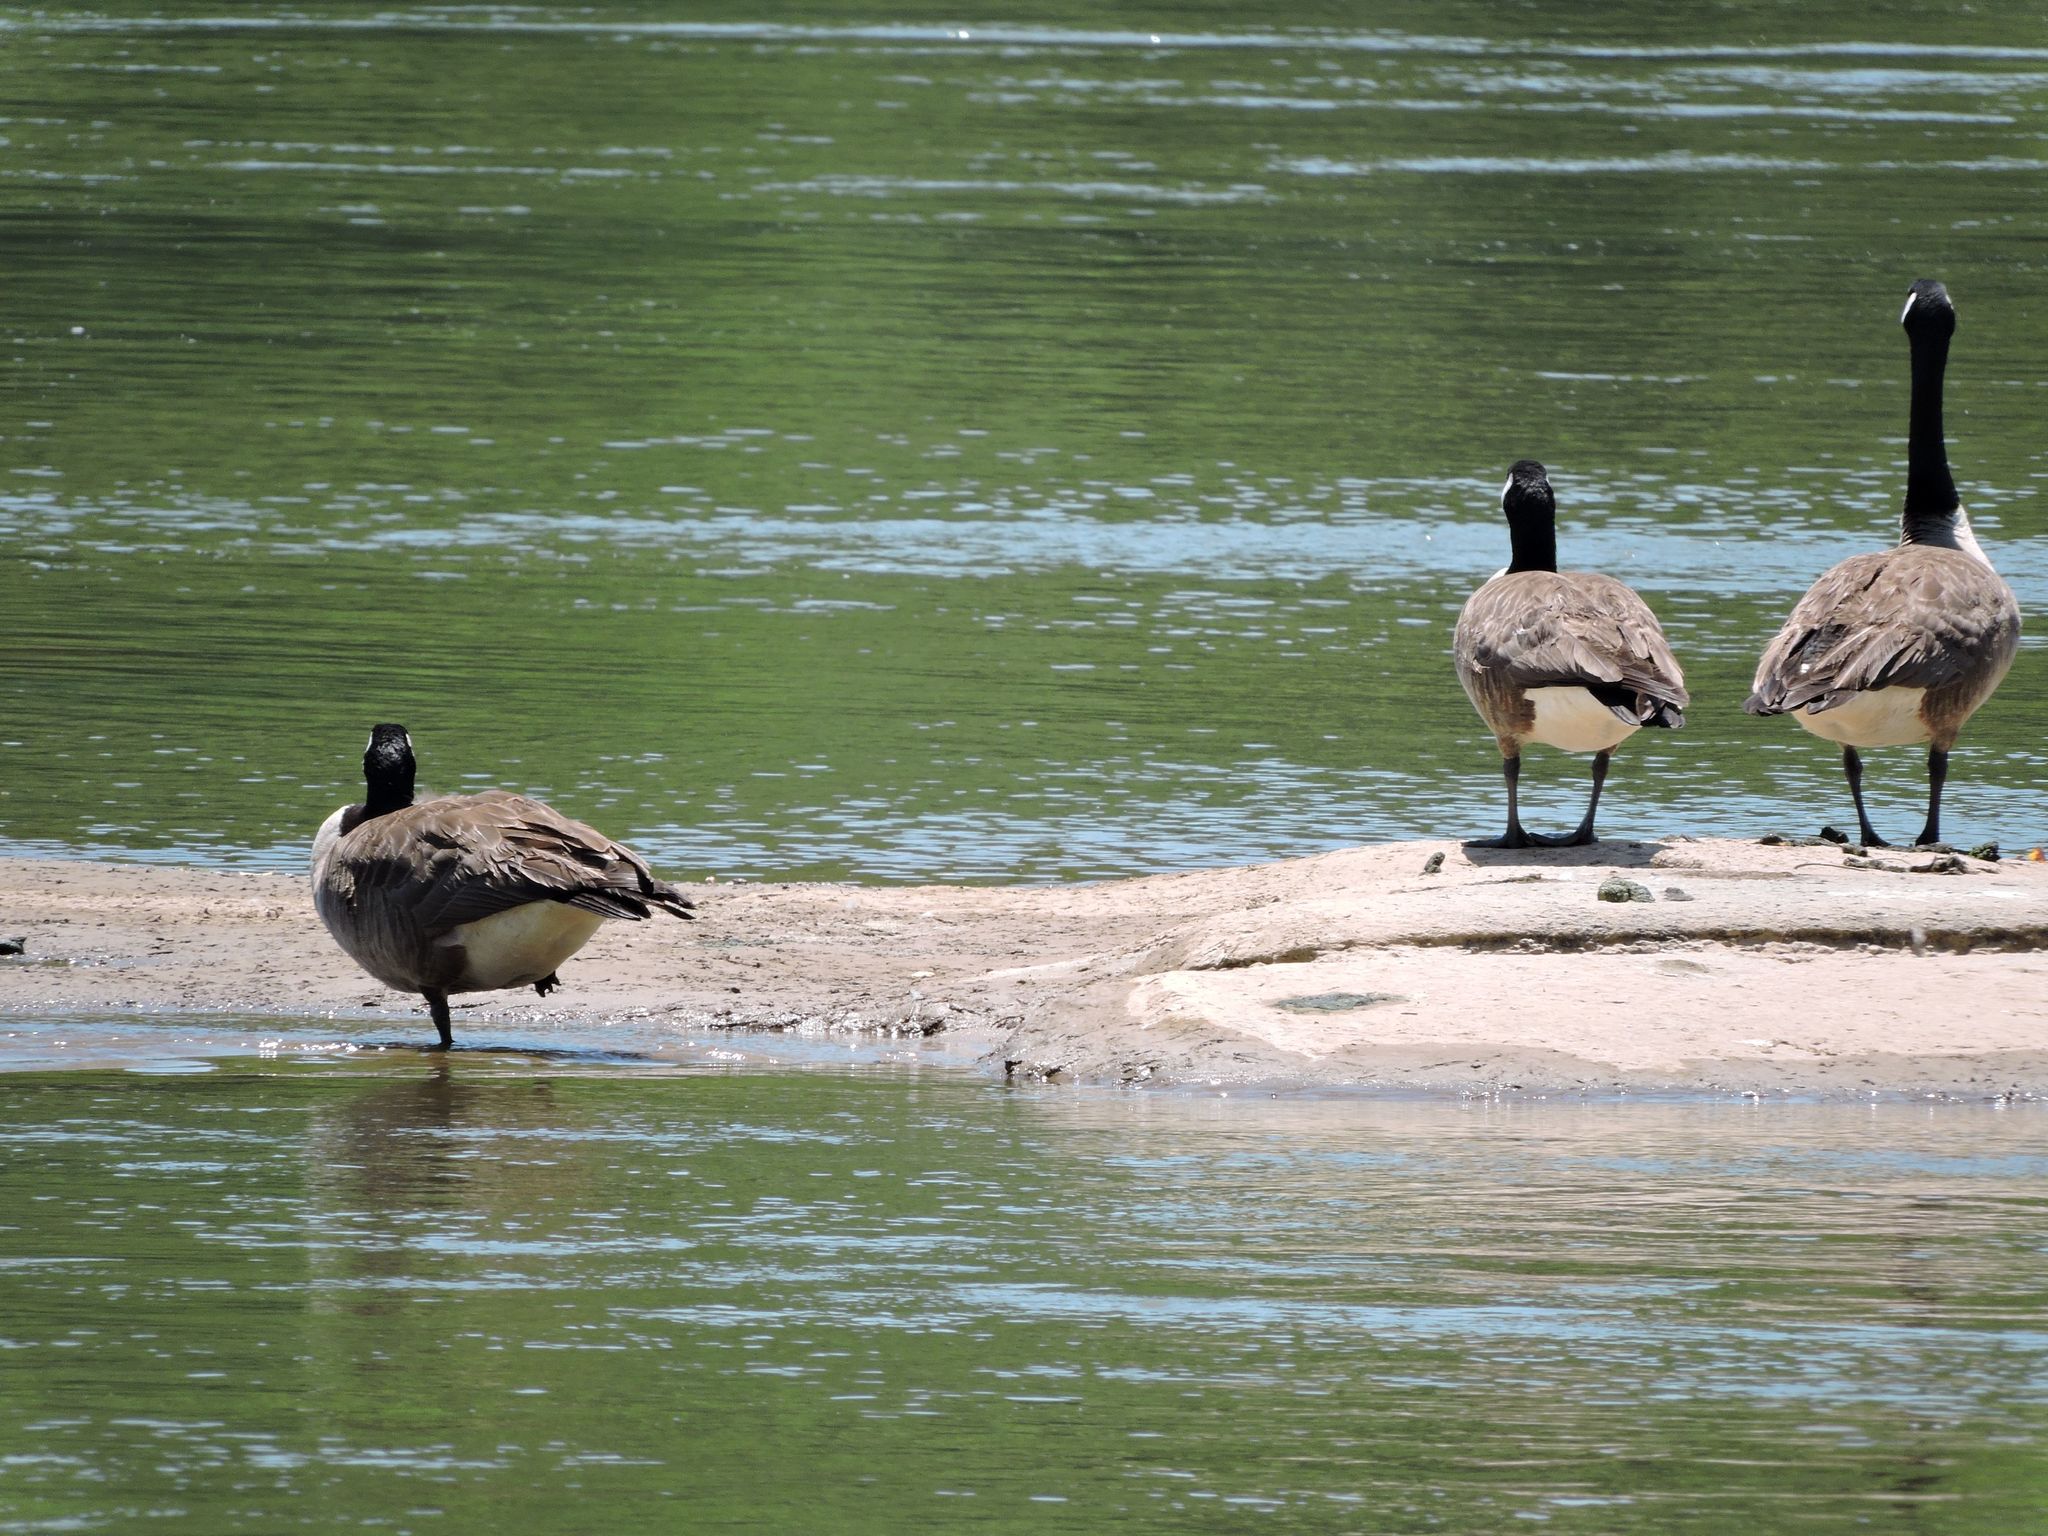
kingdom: Animalia
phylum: Chordata
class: Aves
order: Anseriformes
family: Anatidae
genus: Branta
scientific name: Branta canadensis
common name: Canada goose
